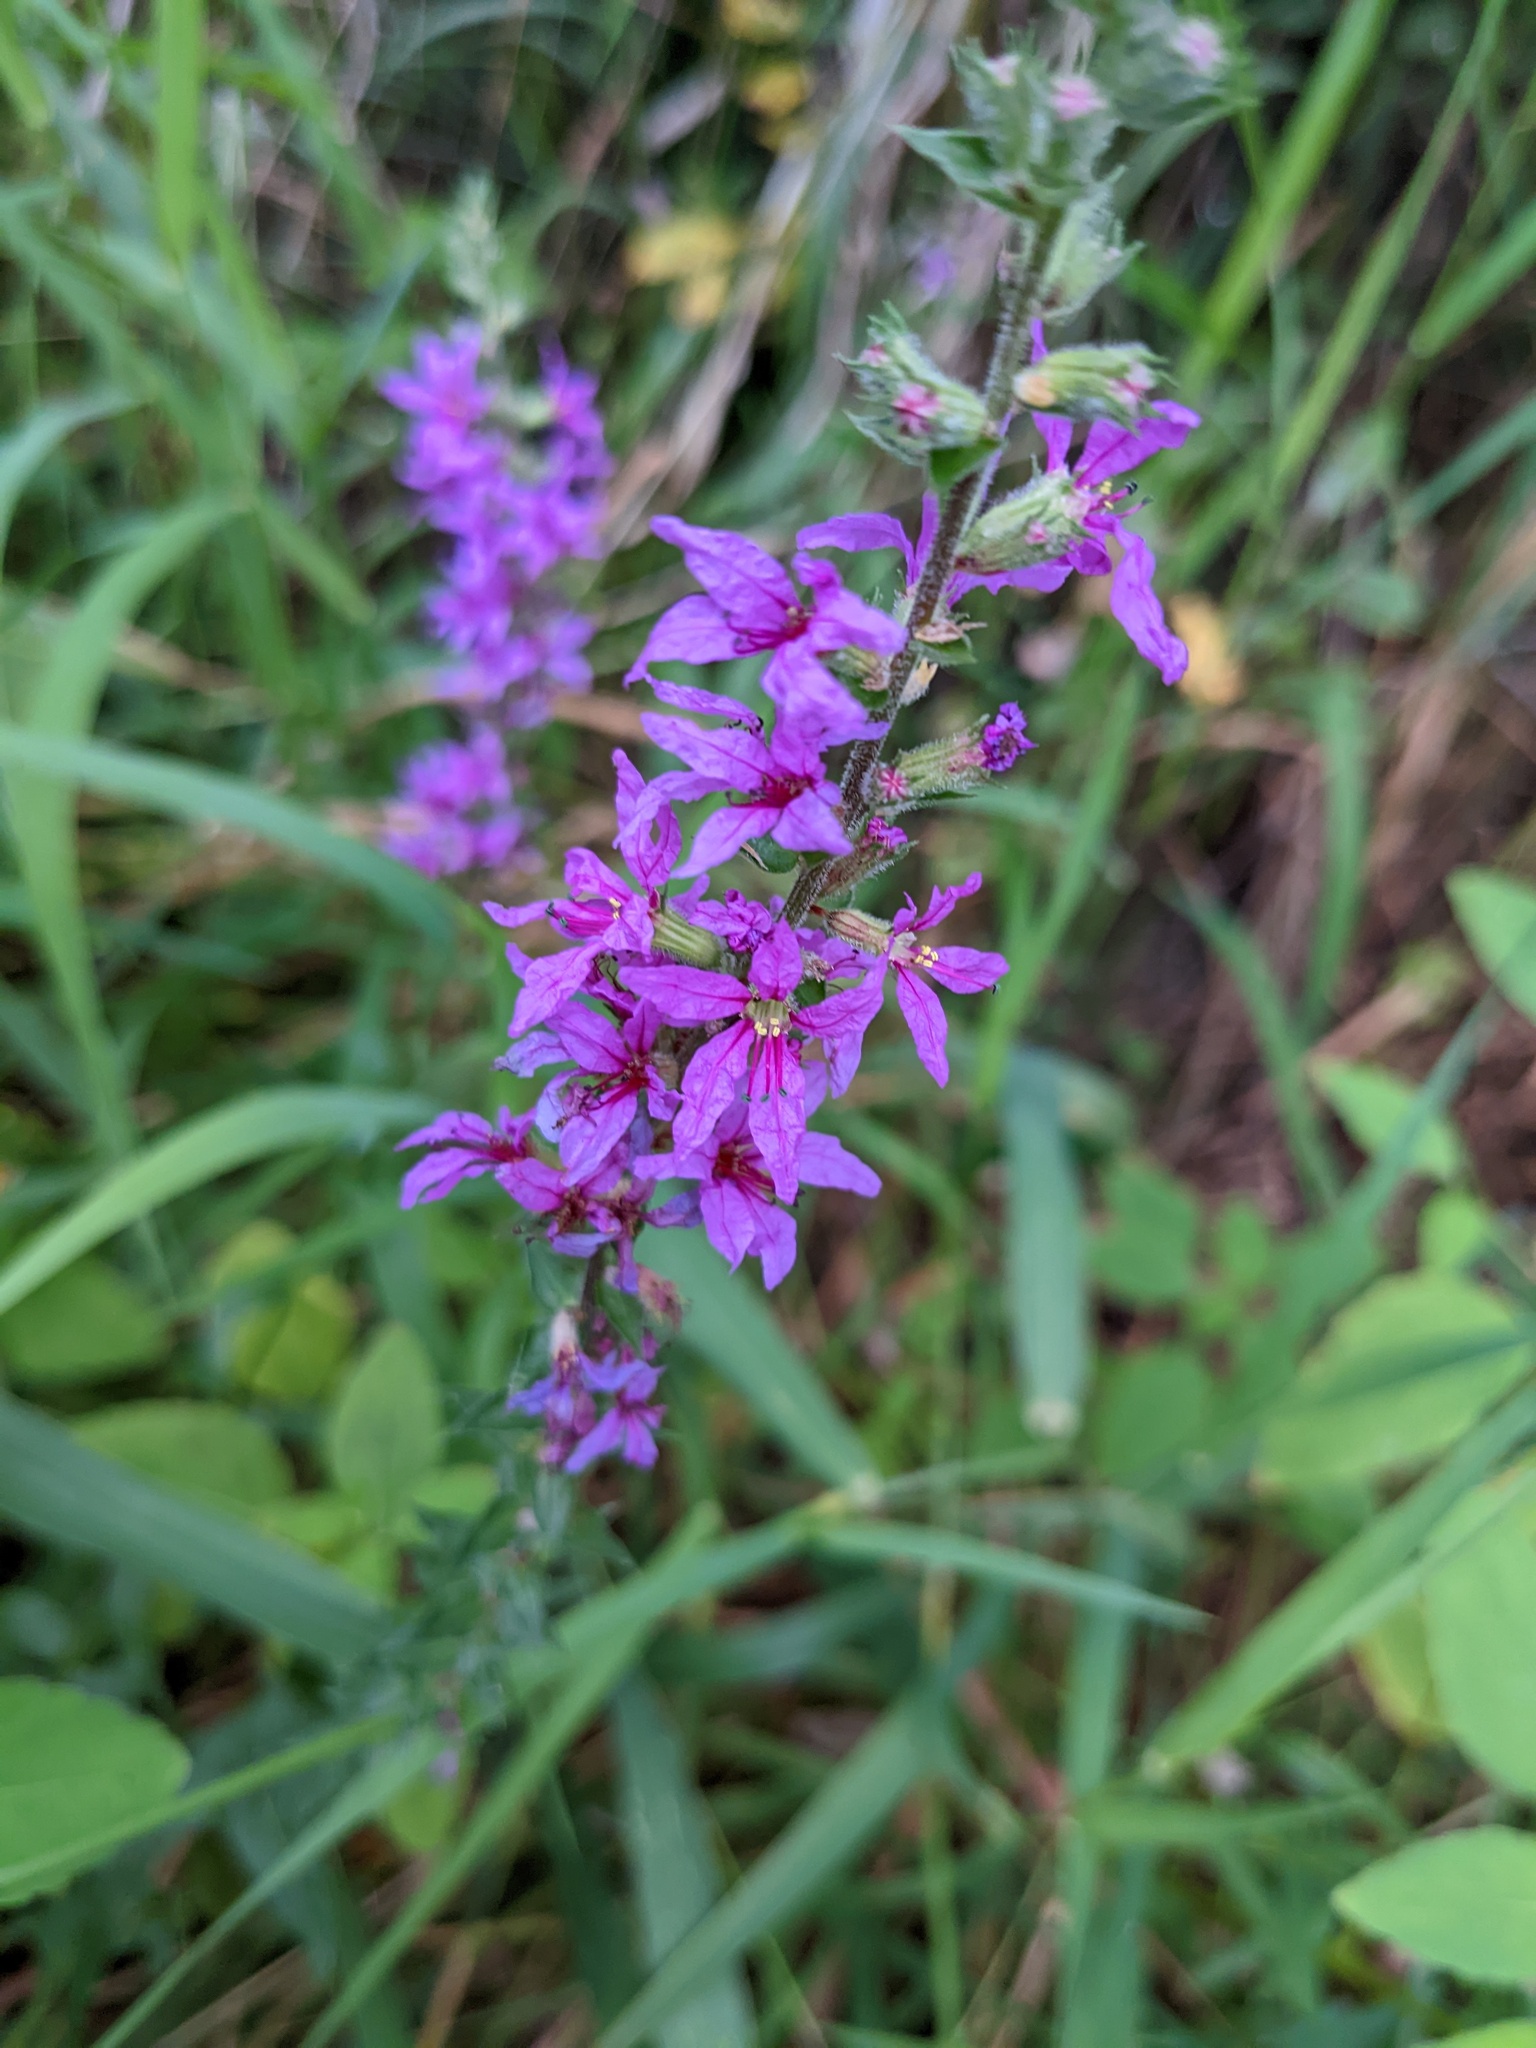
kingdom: Plantae
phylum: Tracheophyta
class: Magnoliopsida
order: Myrtales
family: Lythraceae
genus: Lythrum
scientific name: Lythrum salicaria
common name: Purple loosestrife
